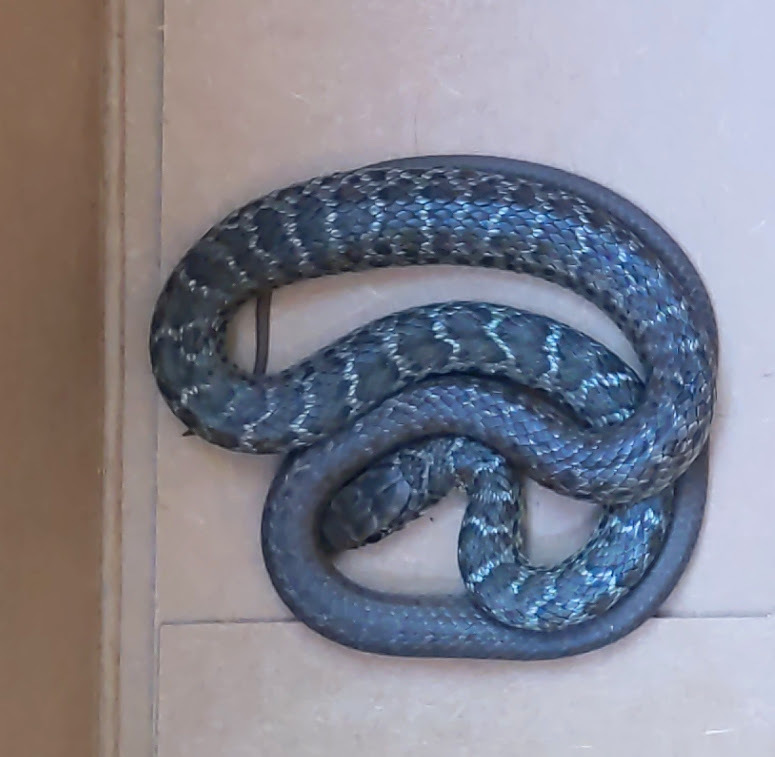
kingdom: Animalia
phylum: Chordata
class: Squamata
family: Colubridae
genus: Coluber
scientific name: Coluber constrictor
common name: Eastern racer
